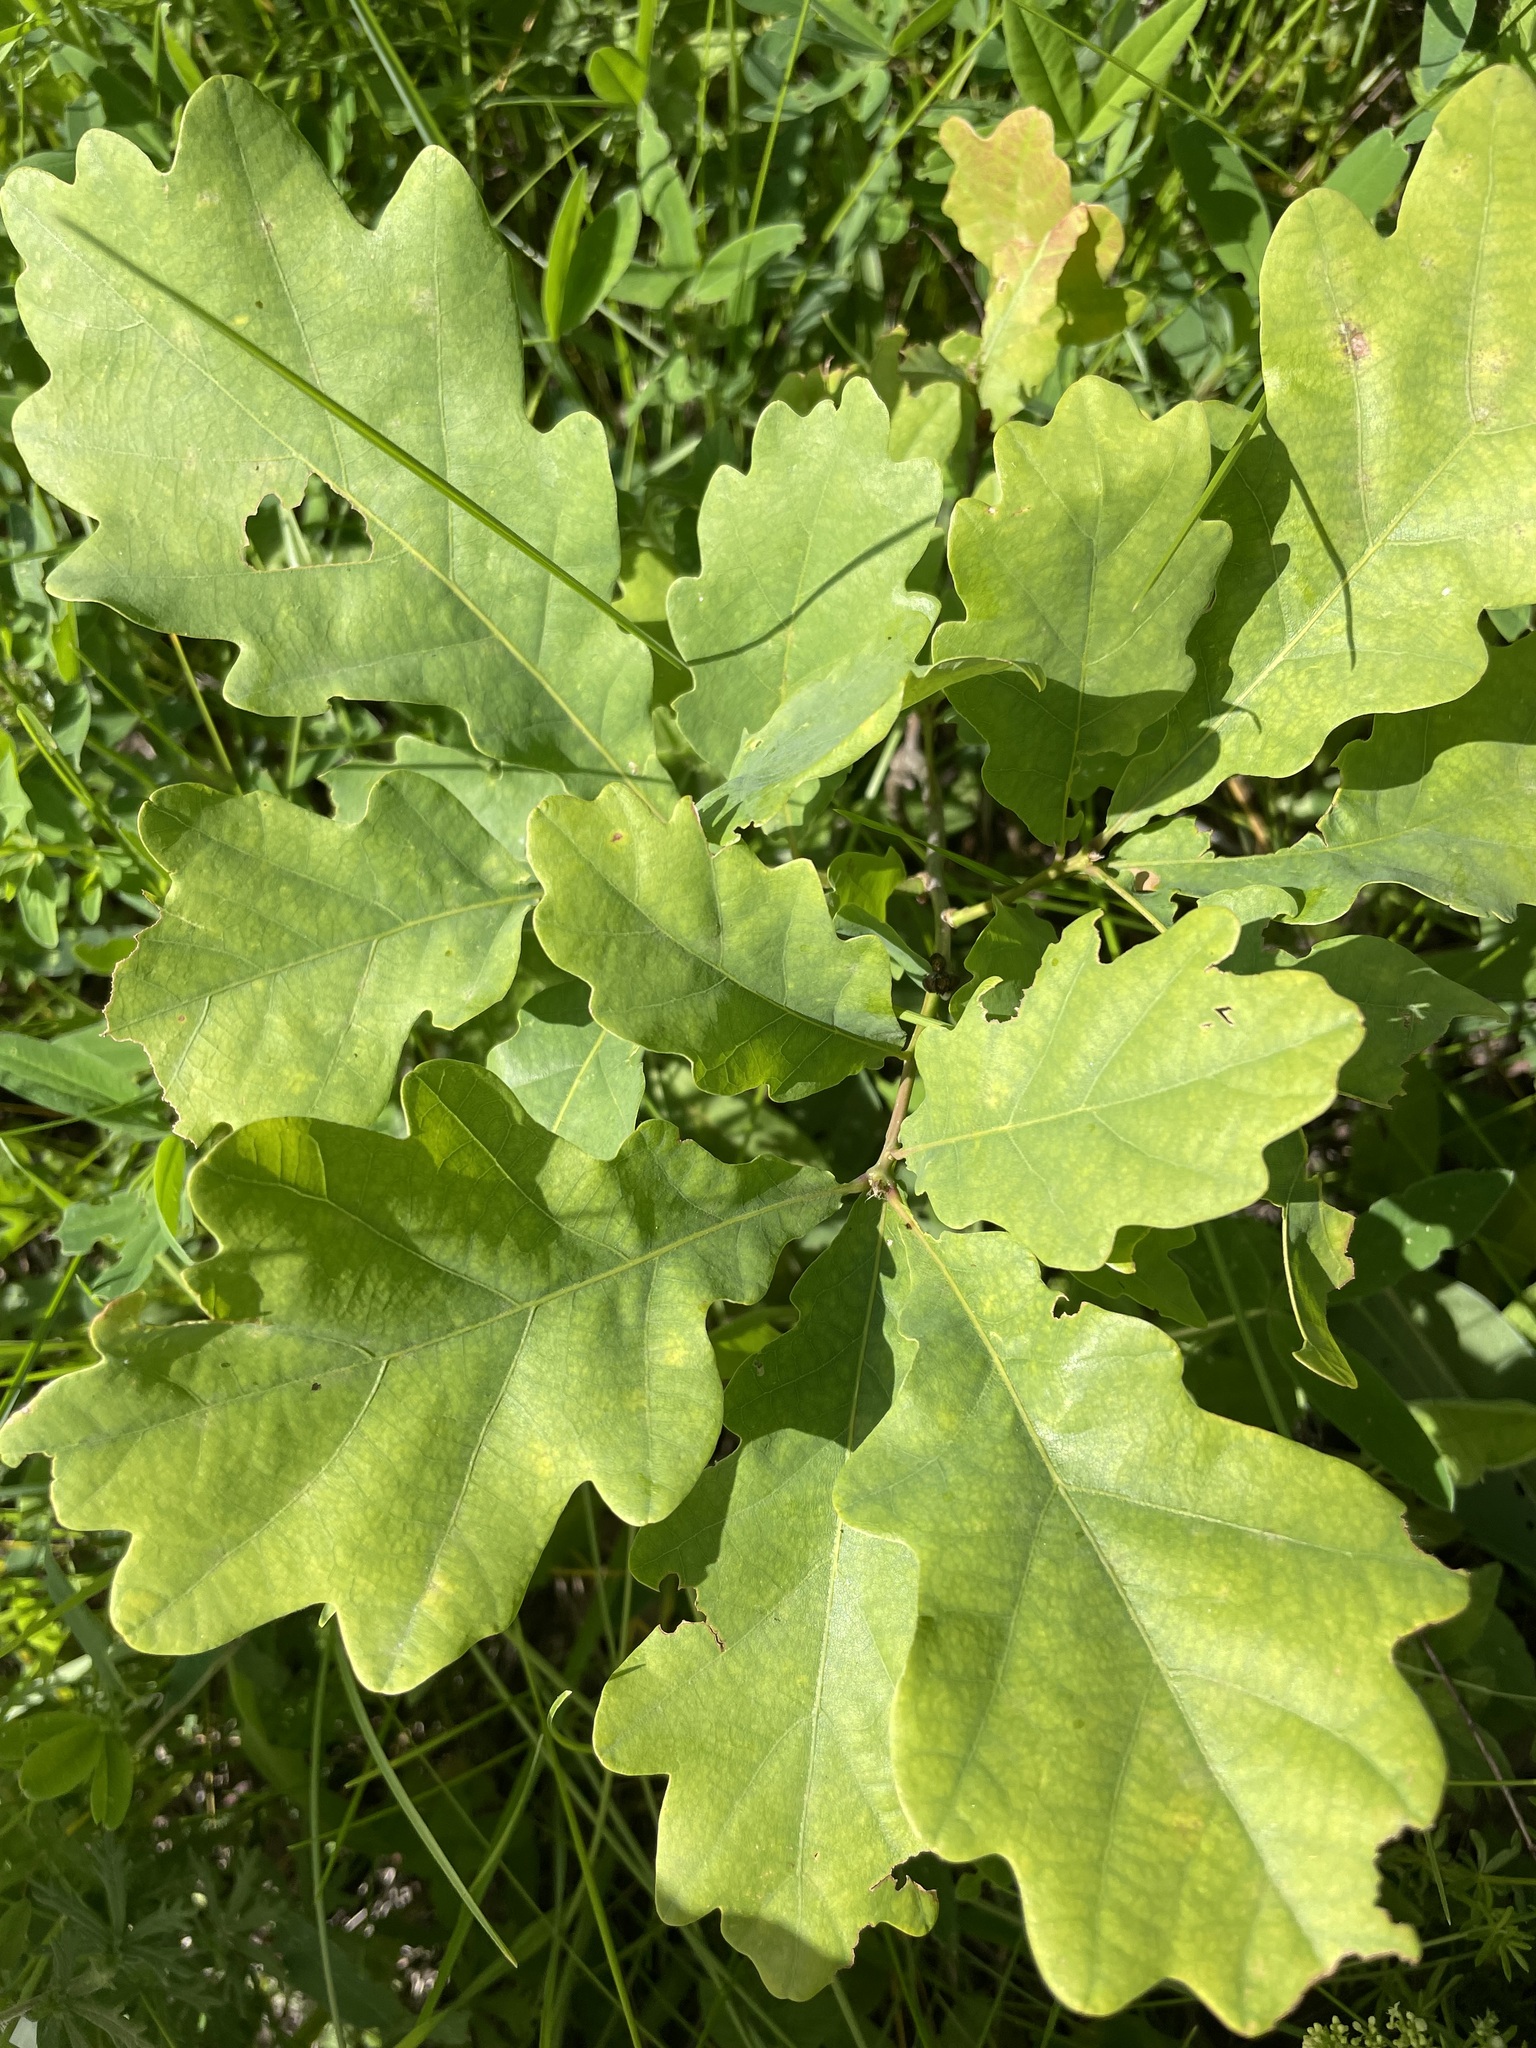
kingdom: Plantae
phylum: Tracheophyta
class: Magnoliopsida
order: Fagales
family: Fagaceae
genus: Quercus
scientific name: Quercus robur
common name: Pedunculate oak
